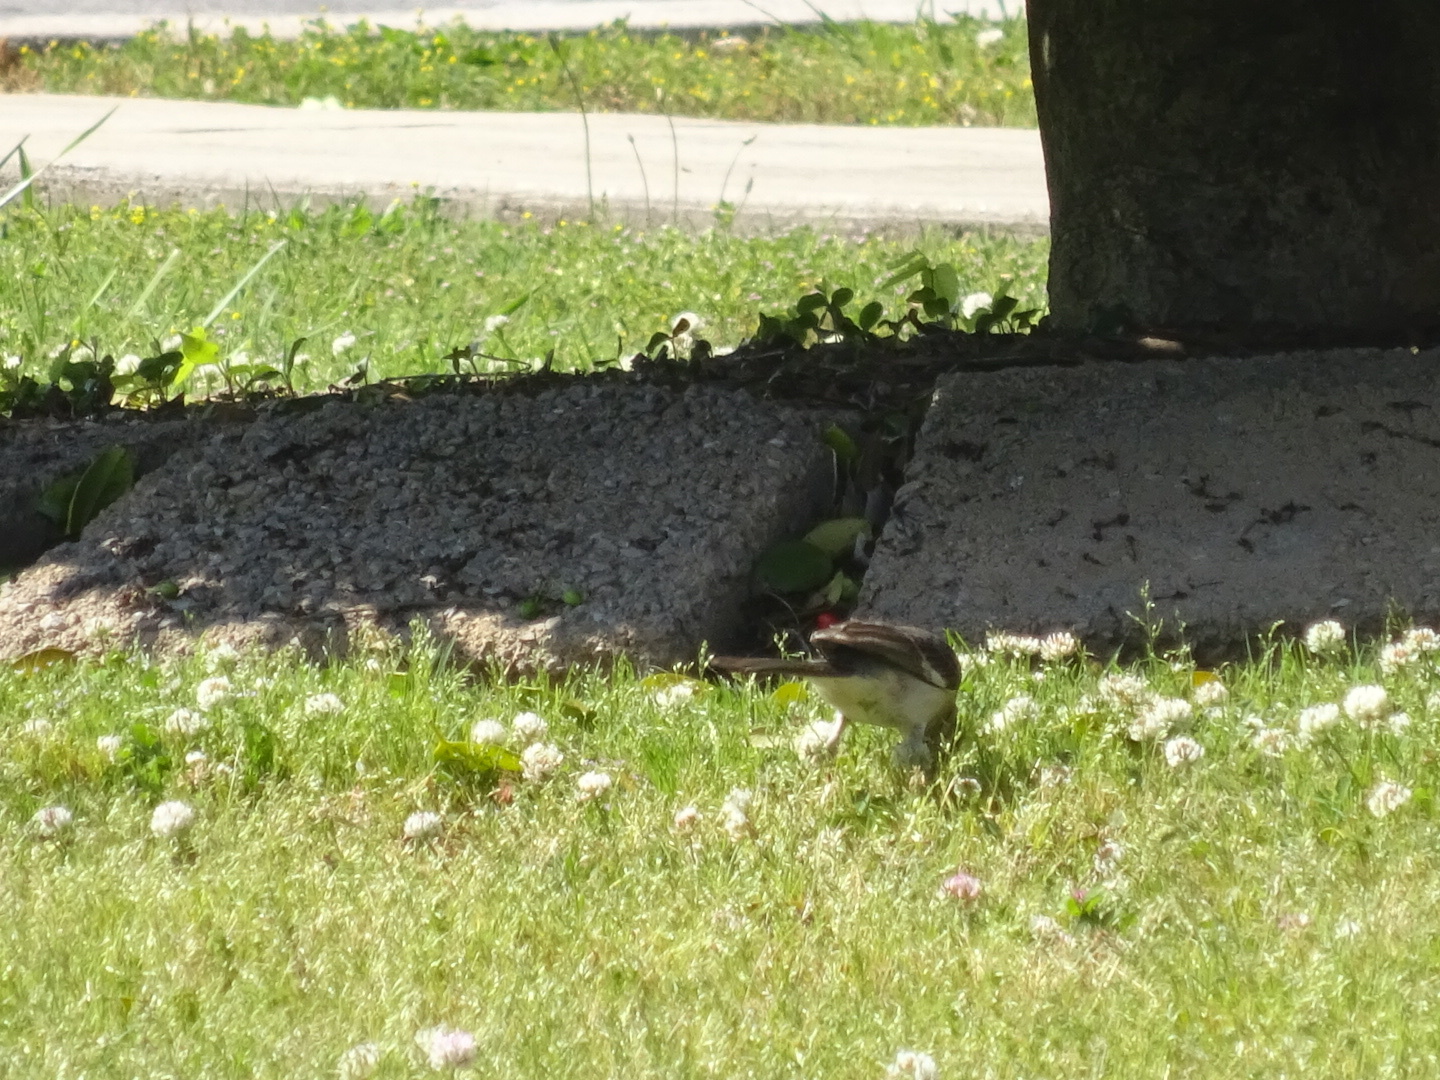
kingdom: Animalia
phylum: Chordata
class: Aves
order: Passeriformes
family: Mimidae
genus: Mimus
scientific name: Mimus polyglottos
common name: Northern mockingbird
